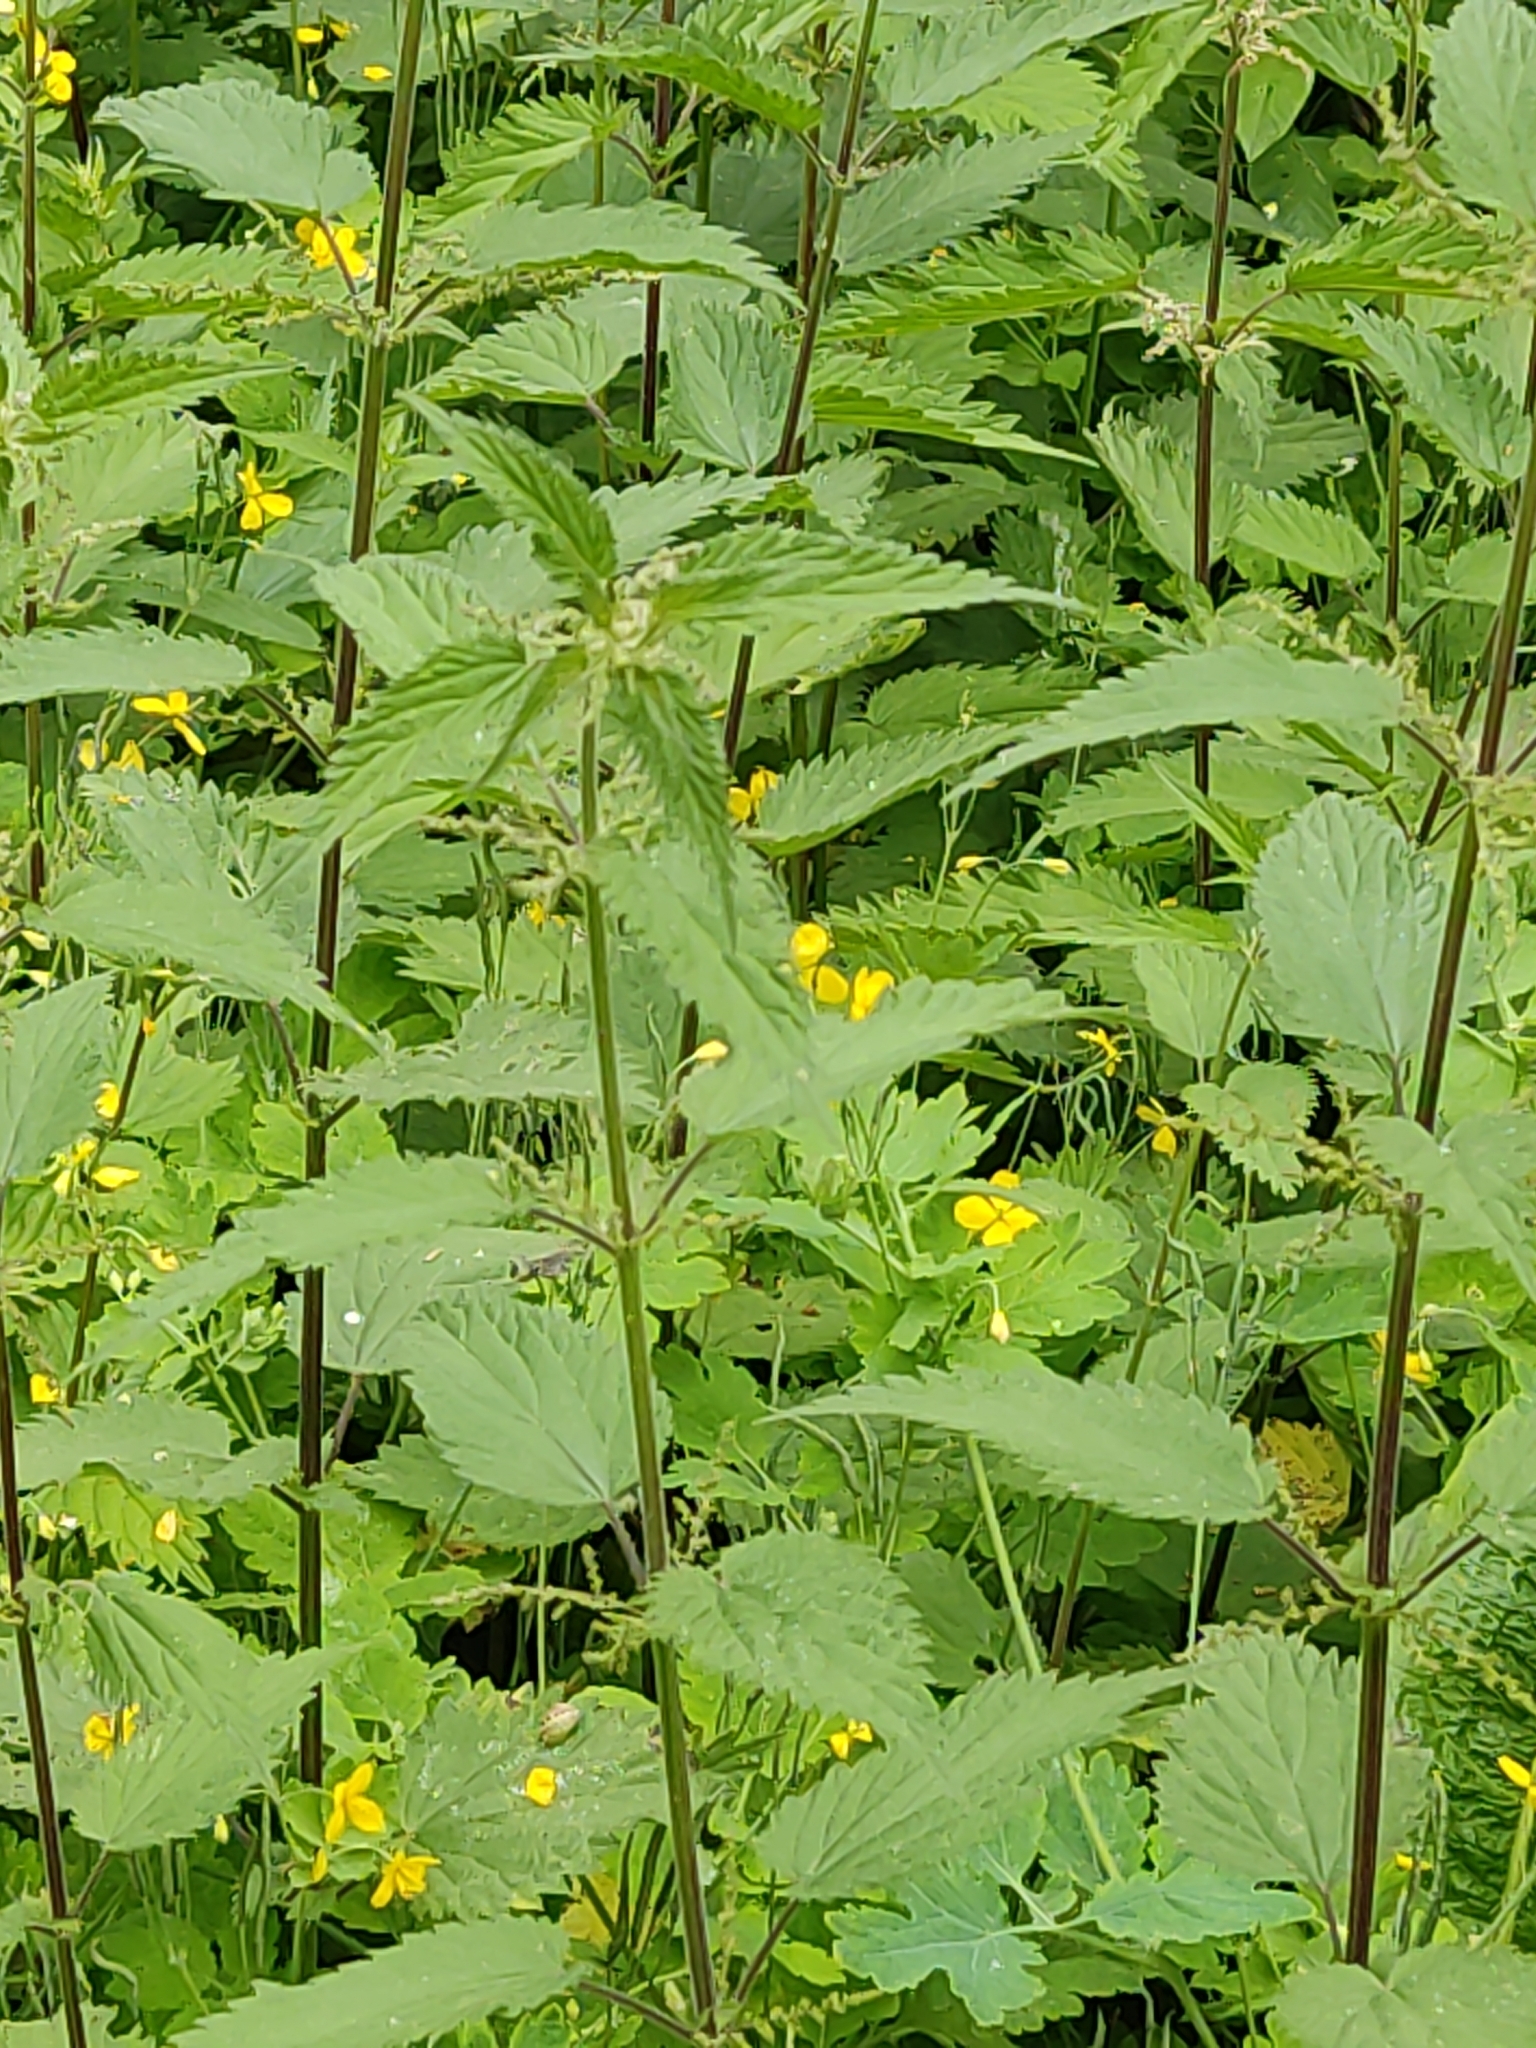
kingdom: Plantae
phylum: Tracheophyta
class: Magnoliopsida
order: Rosales
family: Urticaceae
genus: Urtica
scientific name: Urtica dioica
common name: Common nettle
